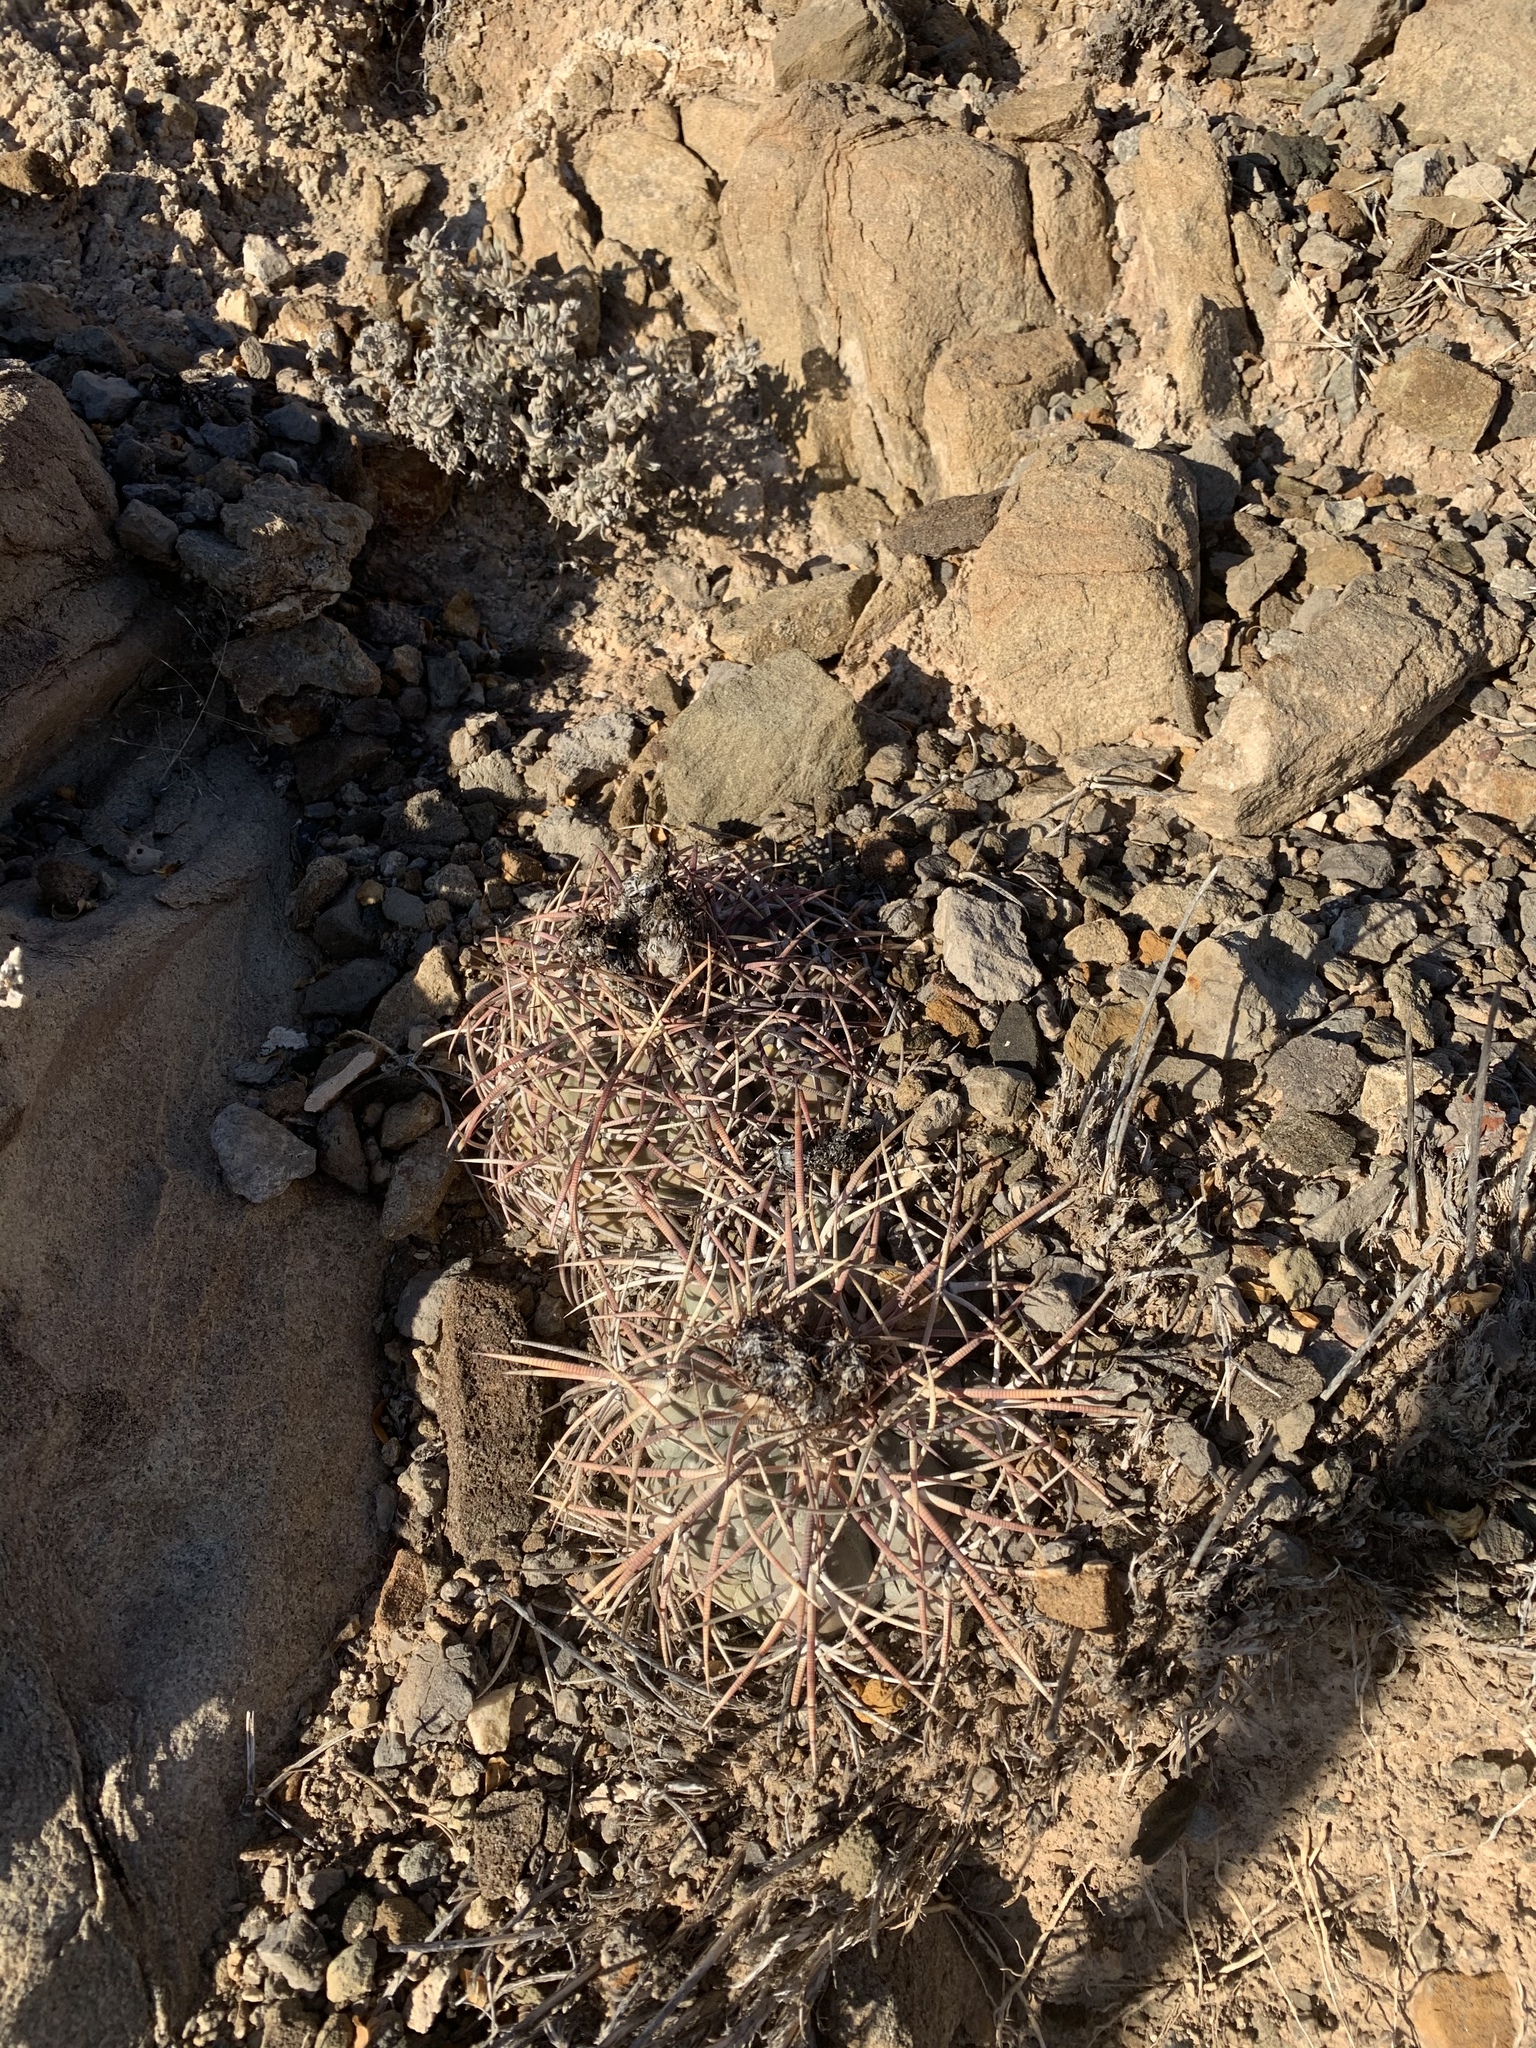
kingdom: Plantae
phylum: Tracheophyta
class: Magnoliopsida
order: Caryophyllales
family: Cactaceae
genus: Echinocactus
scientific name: Echinocactus horizonthalonius
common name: Devilshead
